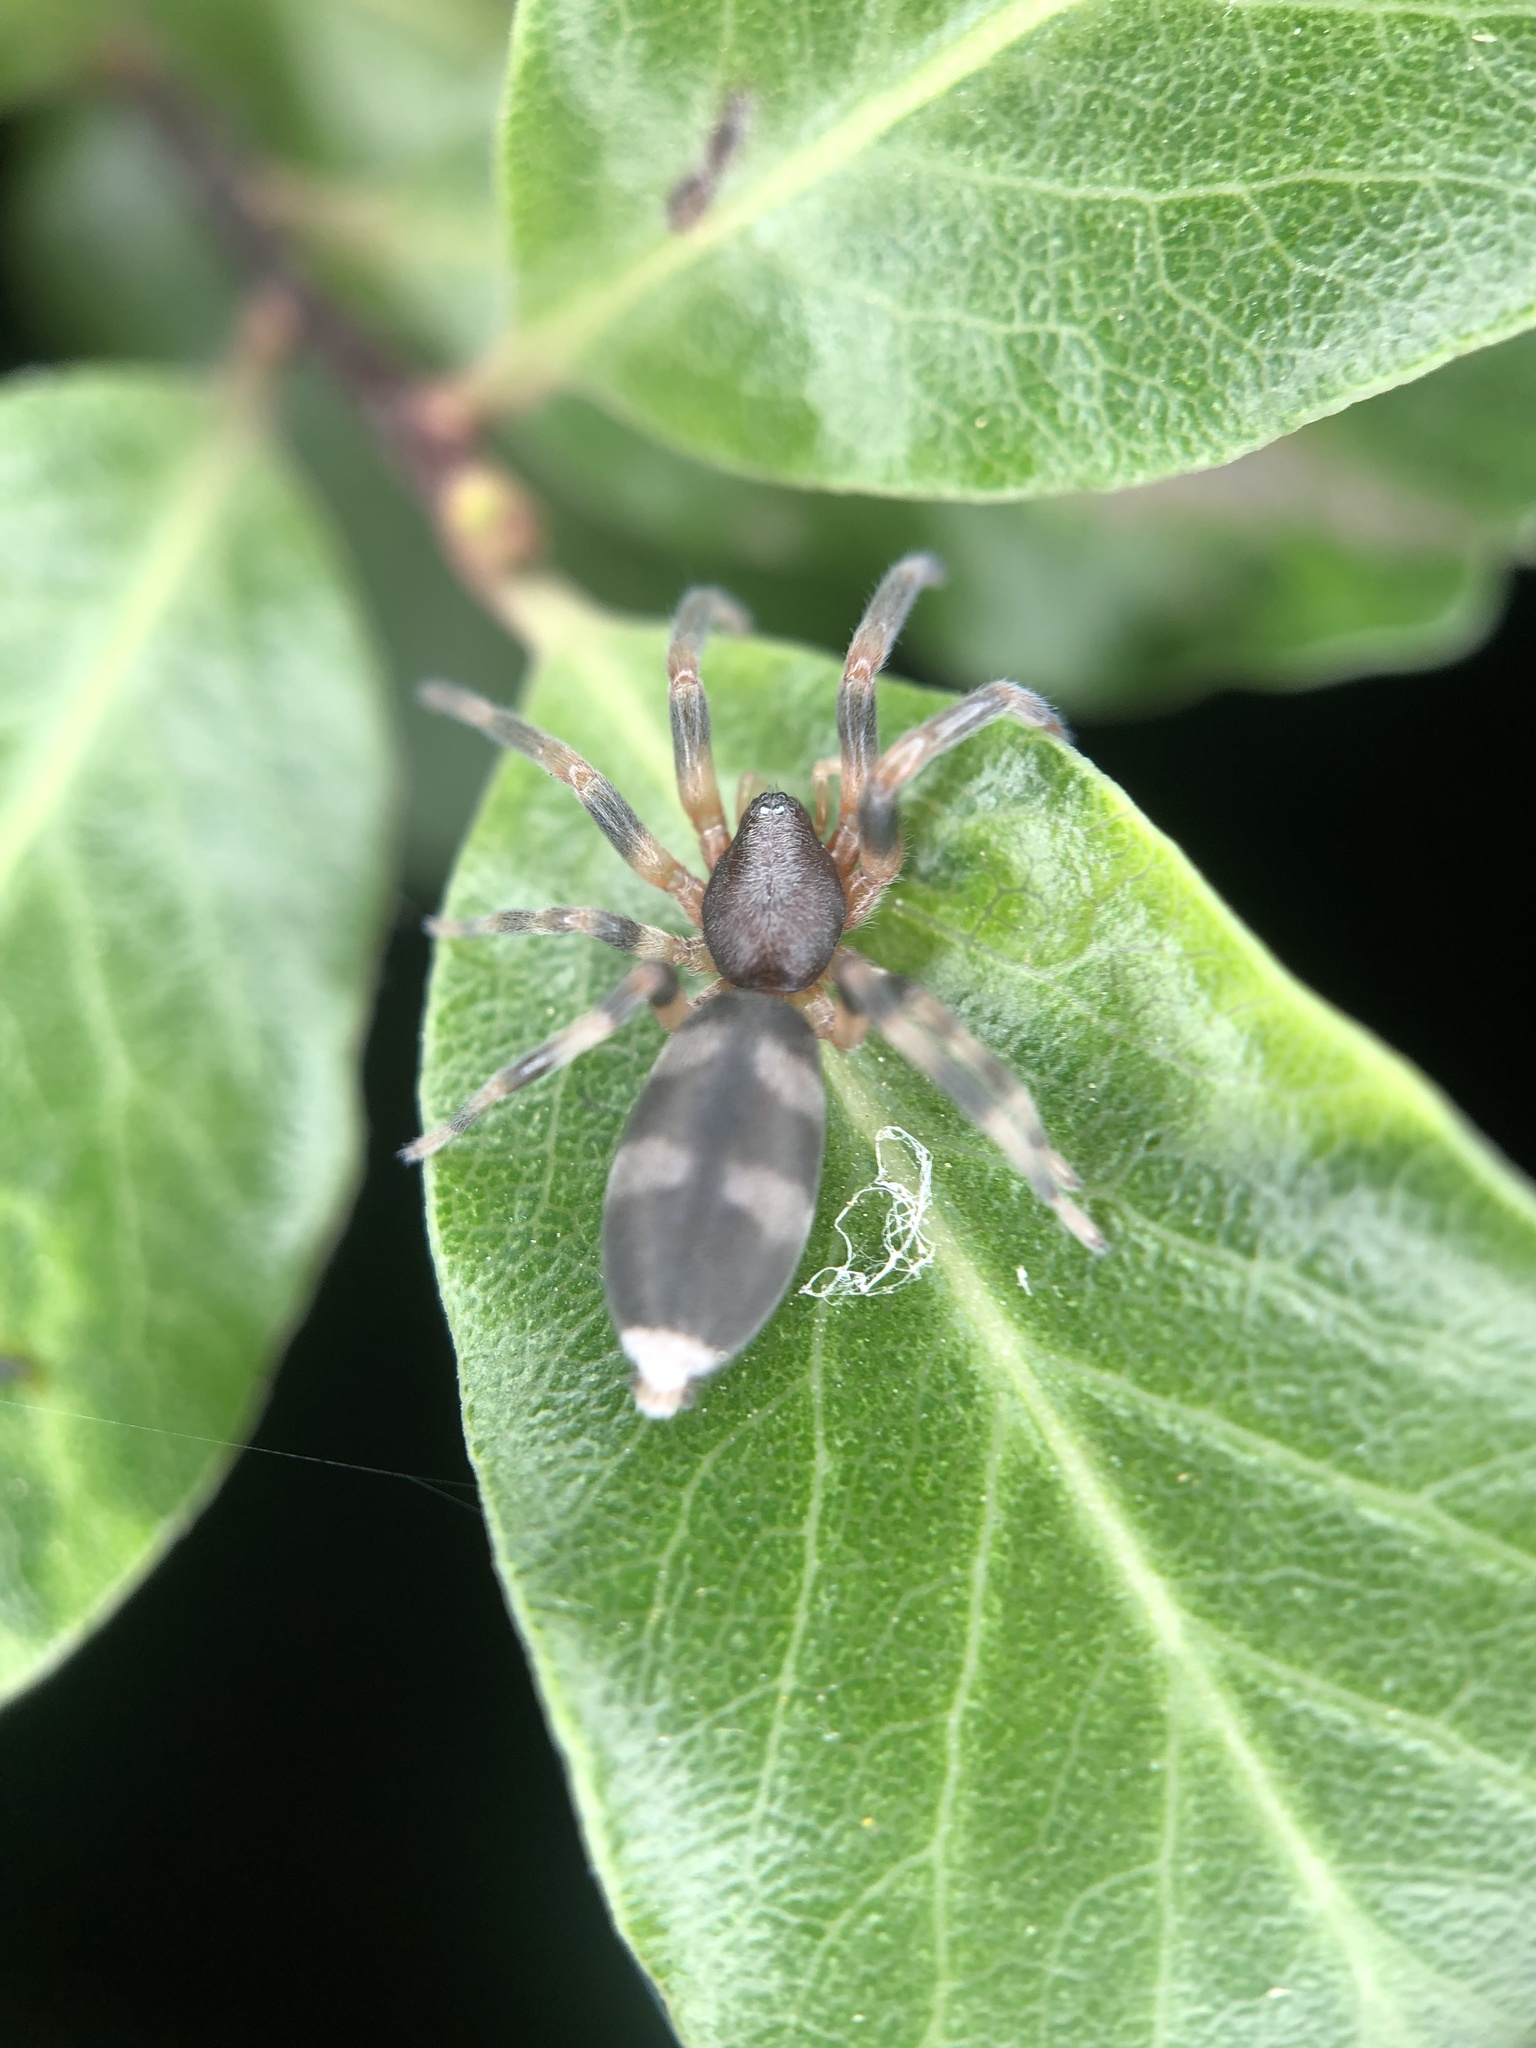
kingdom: Animalia
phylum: Arthropoda
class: Arachnida
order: Araneae
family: Lamponidae
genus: Lampona
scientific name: Lampona cylindrata
